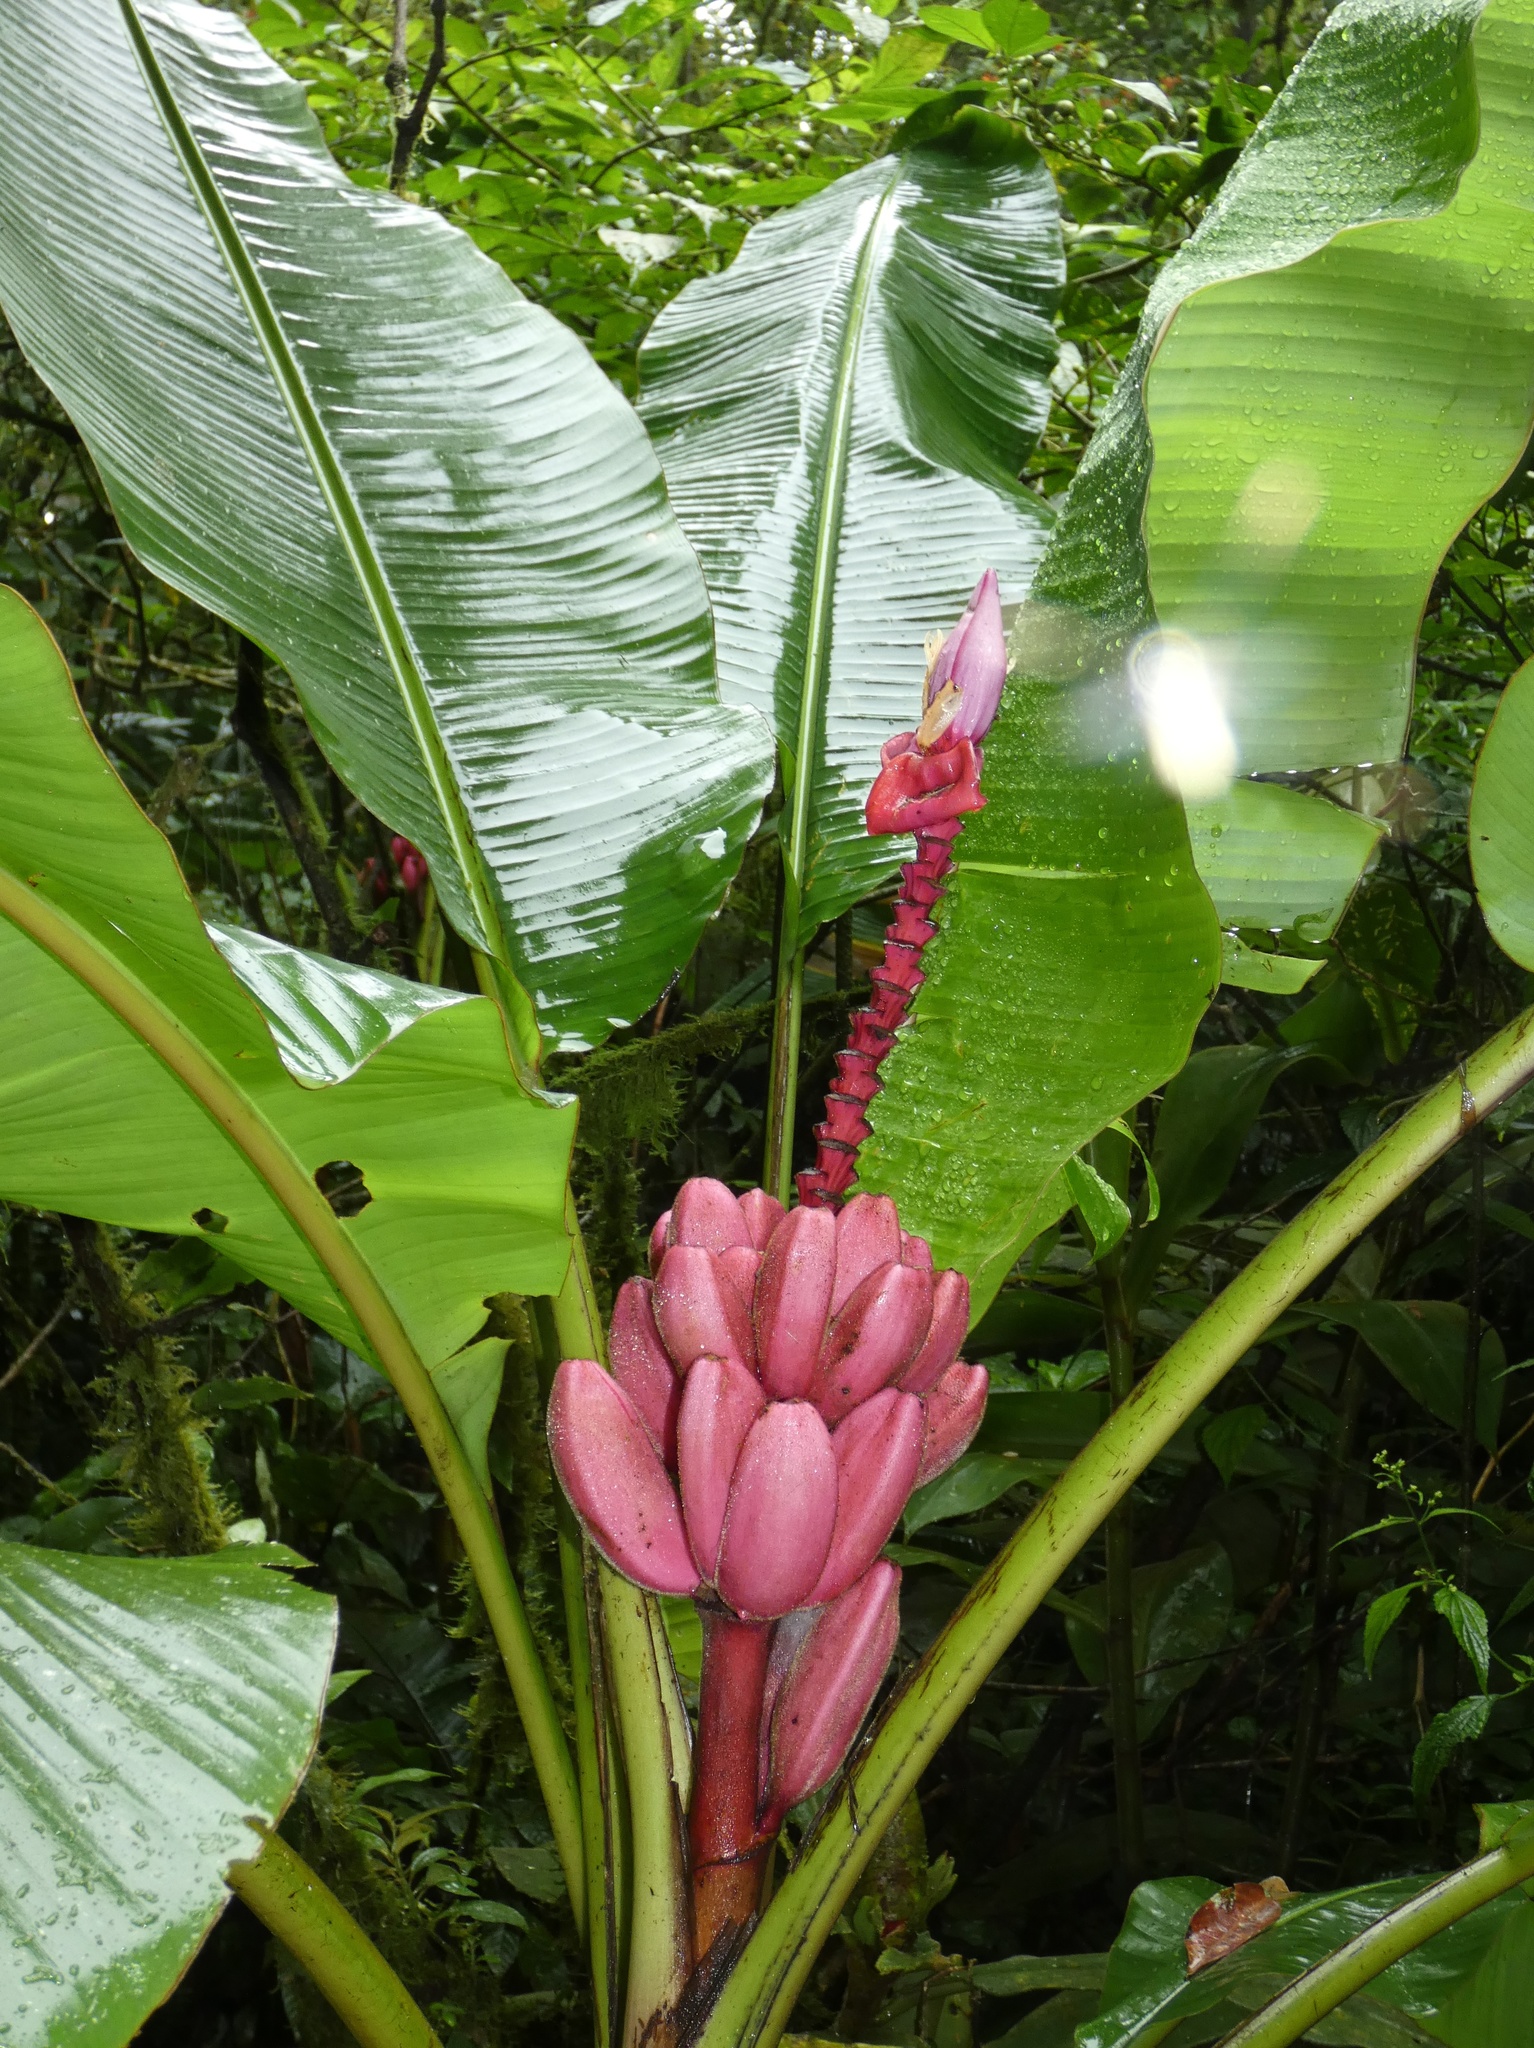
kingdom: Plantae
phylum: Tracheophyta
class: Liliopsida
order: Zingiberales
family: Musaceae
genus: Musa
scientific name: Musa velutina
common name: Pink velvet banana
